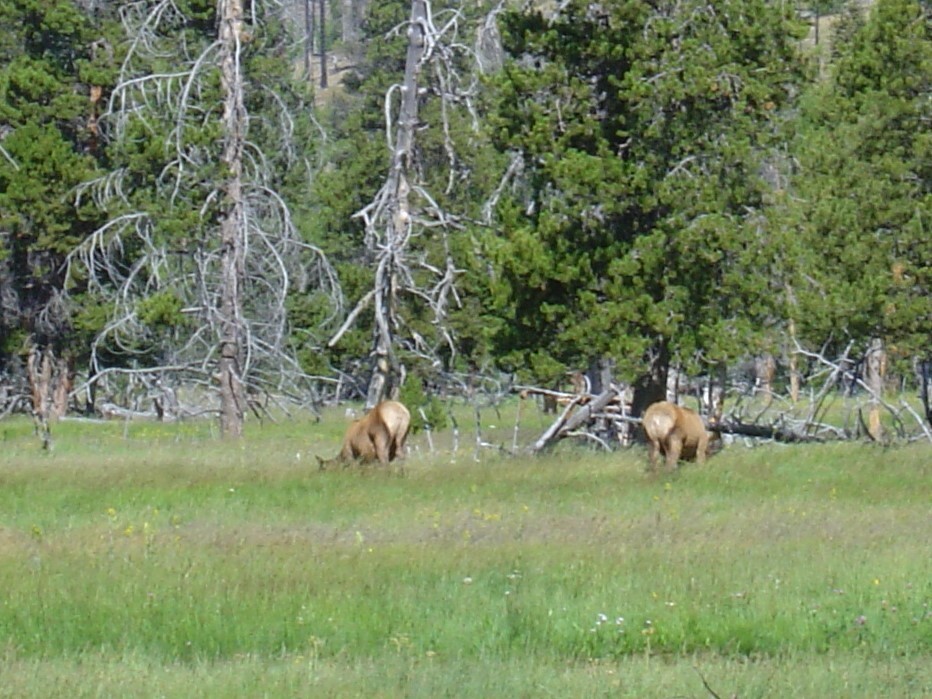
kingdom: Animalia
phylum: Chordata
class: Mammalia
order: Artiodactyla
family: Cervidae
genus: Cervus
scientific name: Cervus elaphus
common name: Red deer
